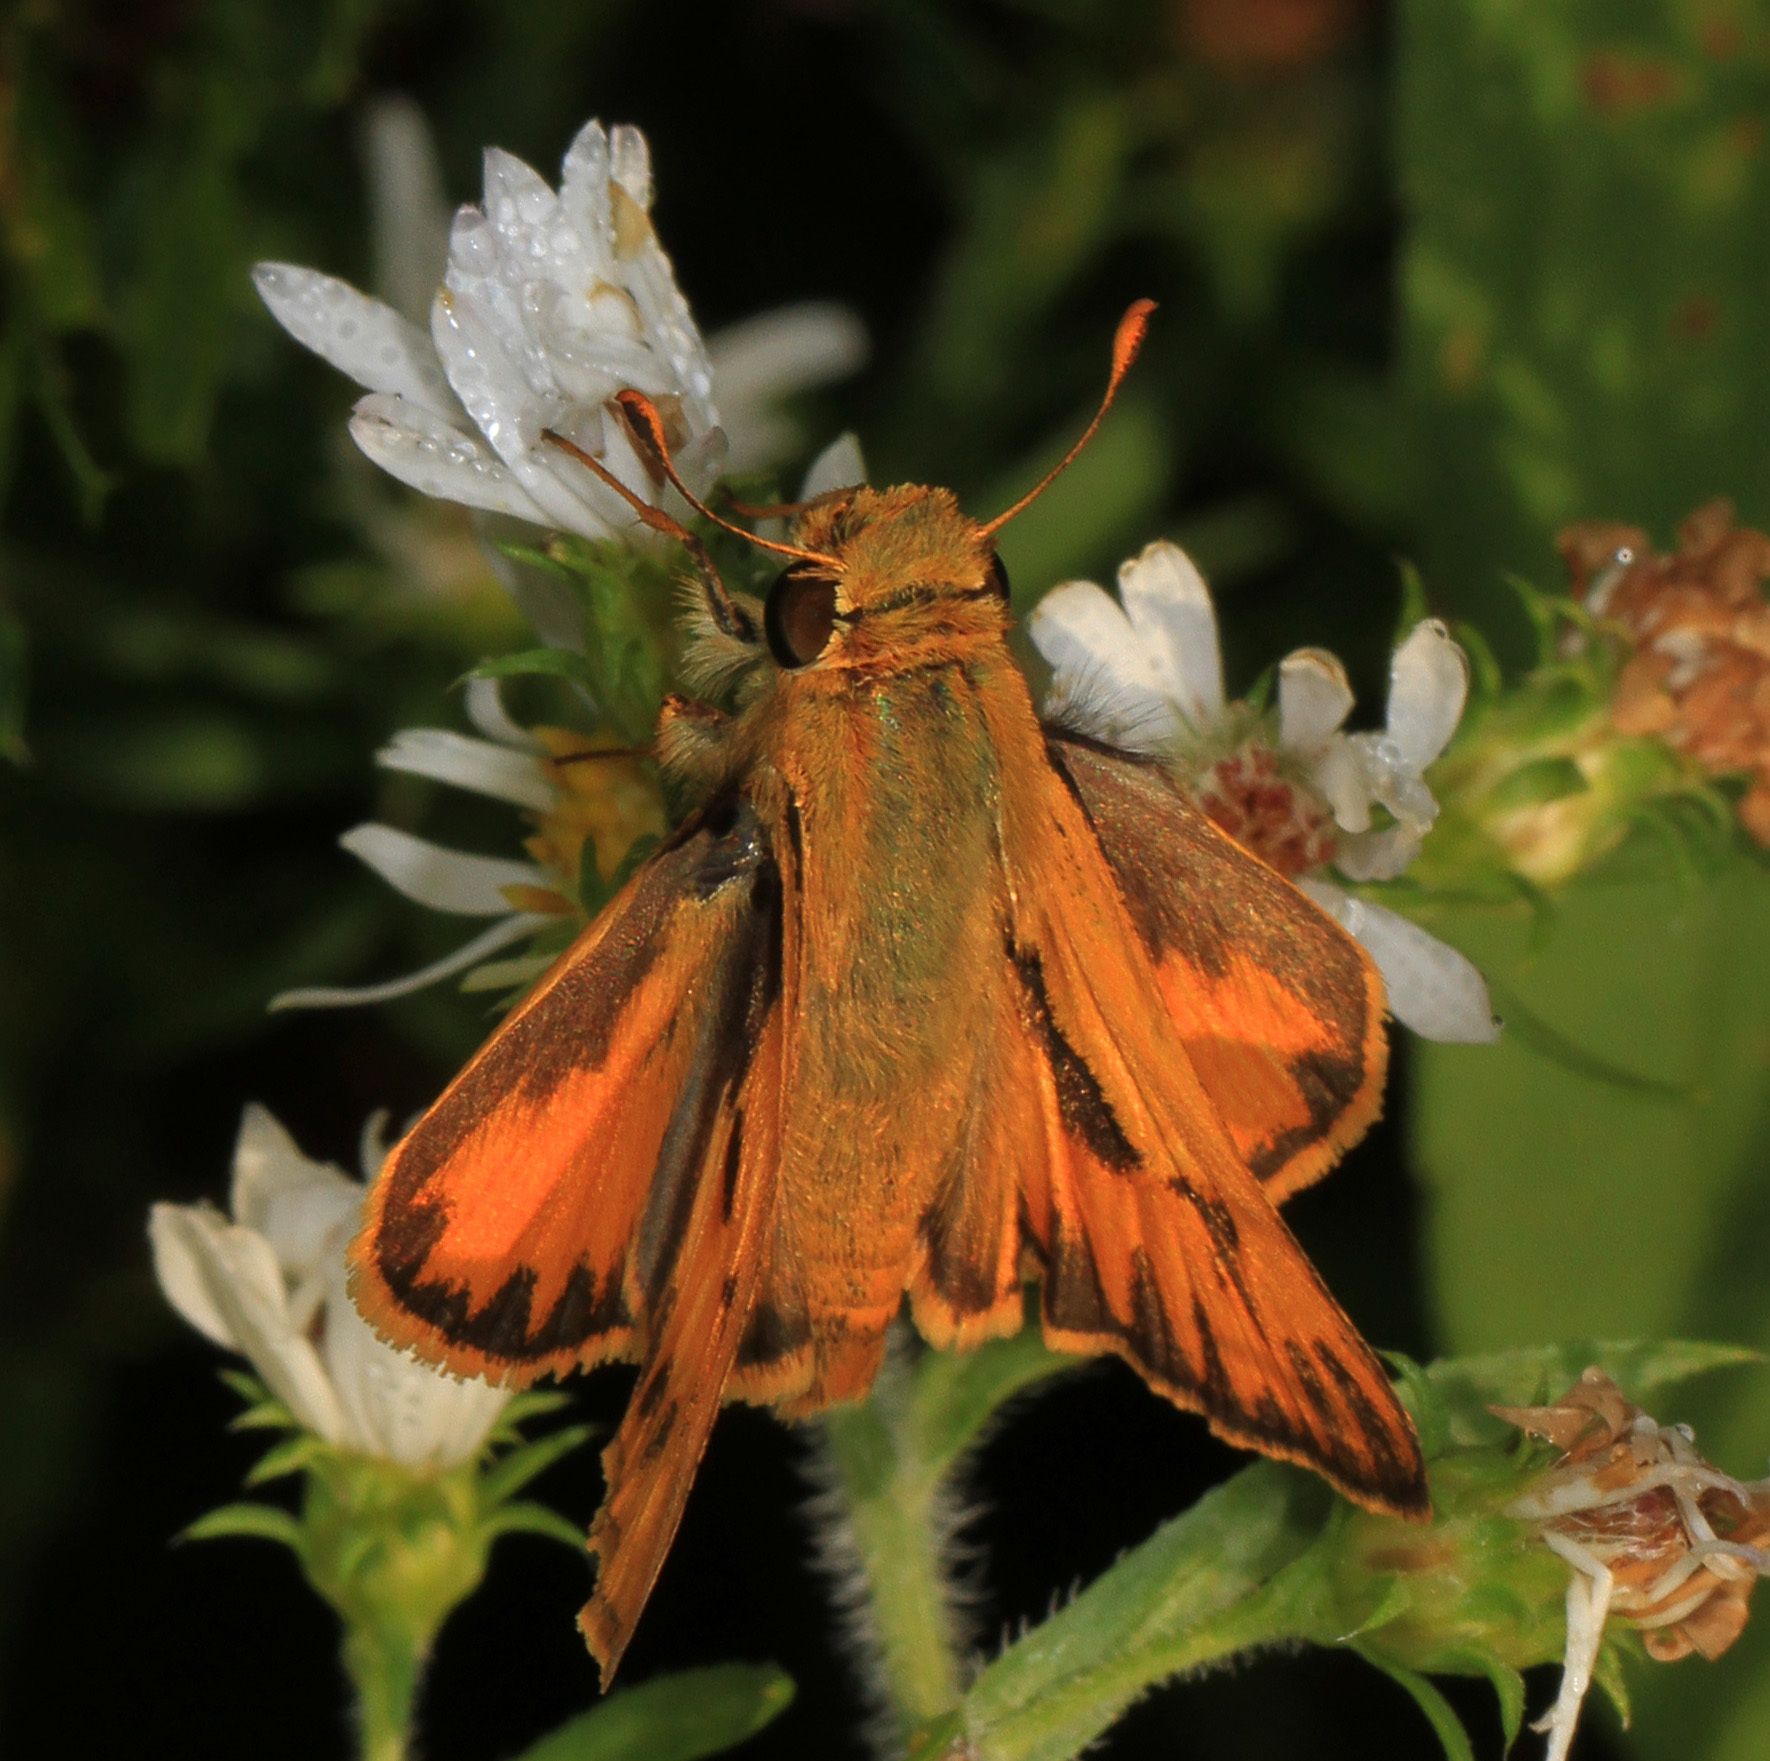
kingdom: Animalia
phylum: Arthropoda
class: Insecta
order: Lepidoptera
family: Hesperiidae
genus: Hylephila
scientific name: Hylephila phyleus
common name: Fiery skipper
